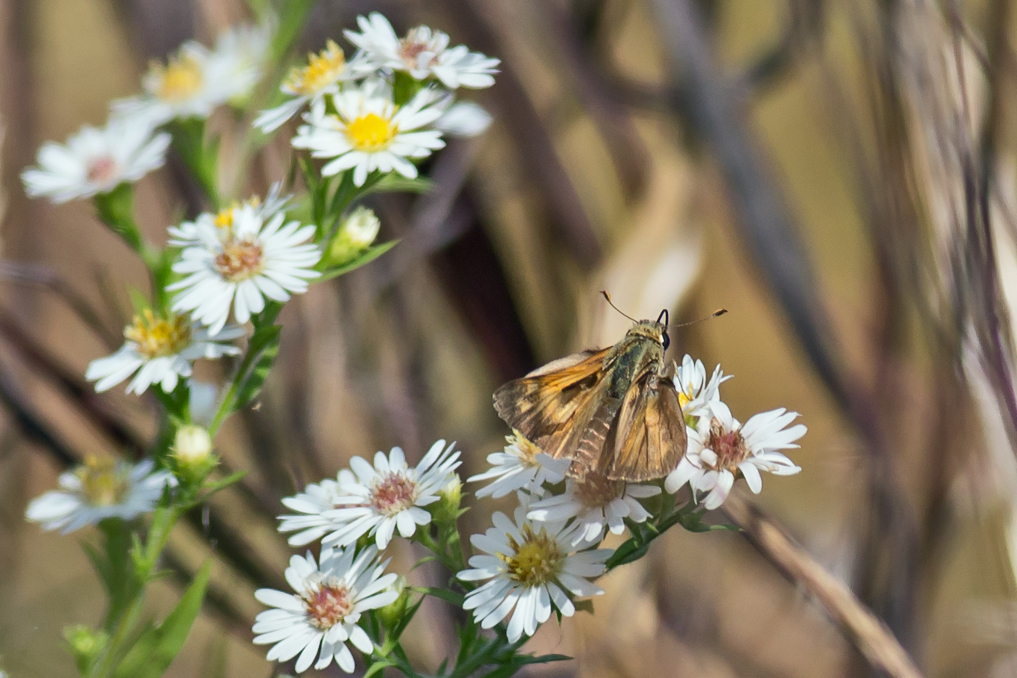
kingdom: Animalia
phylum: Arthropoda
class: Insecta
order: Lepidoptera
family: Hesperiidae
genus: Atalopedes
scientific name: Atalopedes
